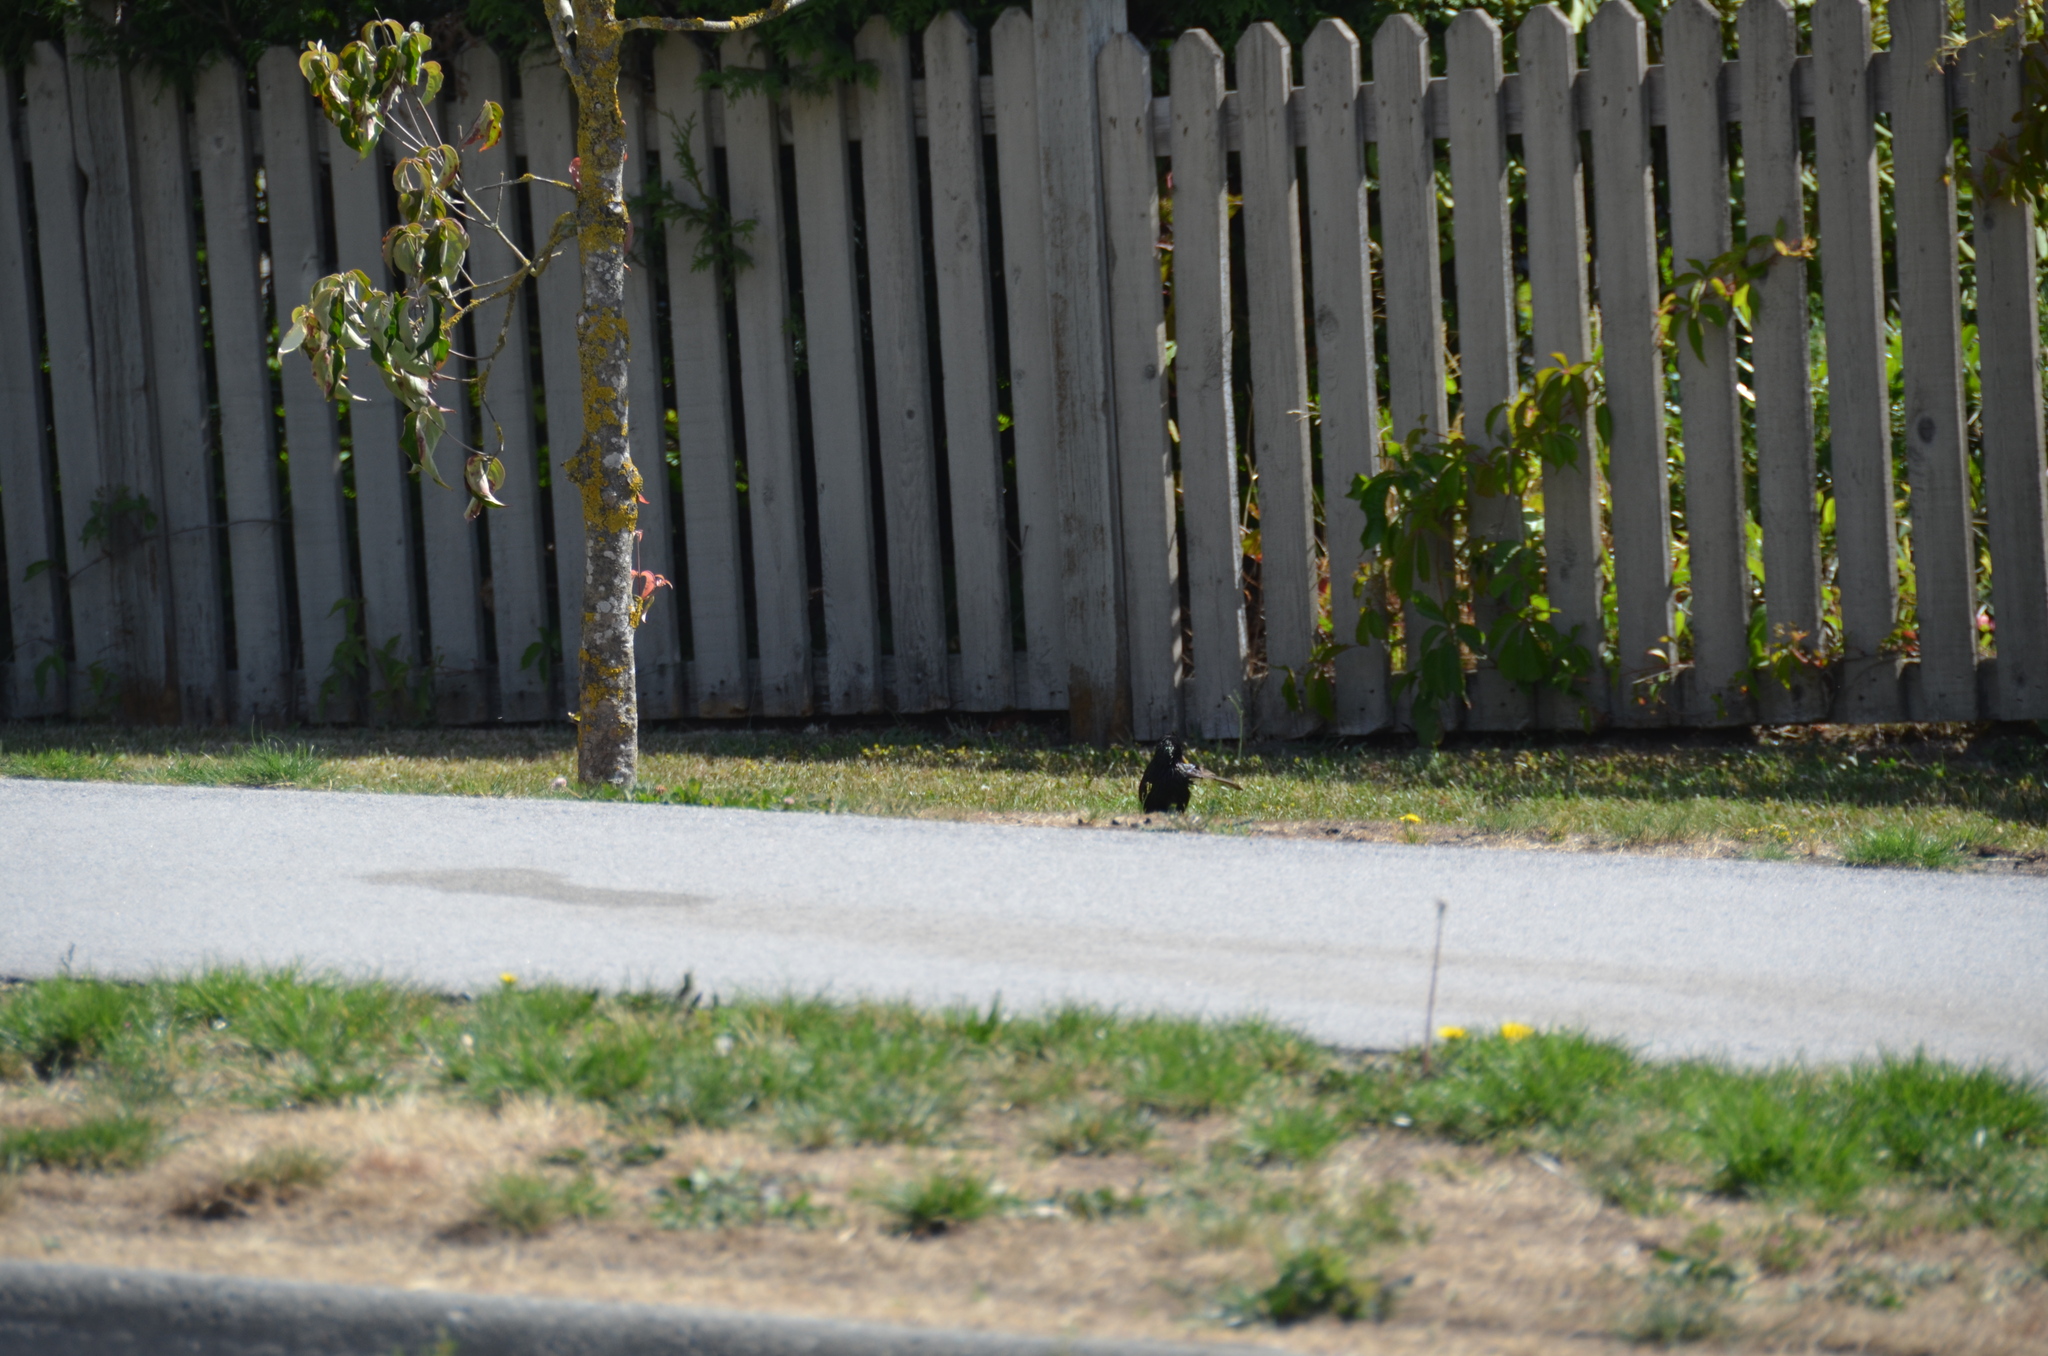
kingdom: Animalia
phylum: Chordata
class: Aves
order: Passeriformes
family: Sturnidae
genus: Sturnus
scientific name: Sturnus vulgaris
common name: Common starling
